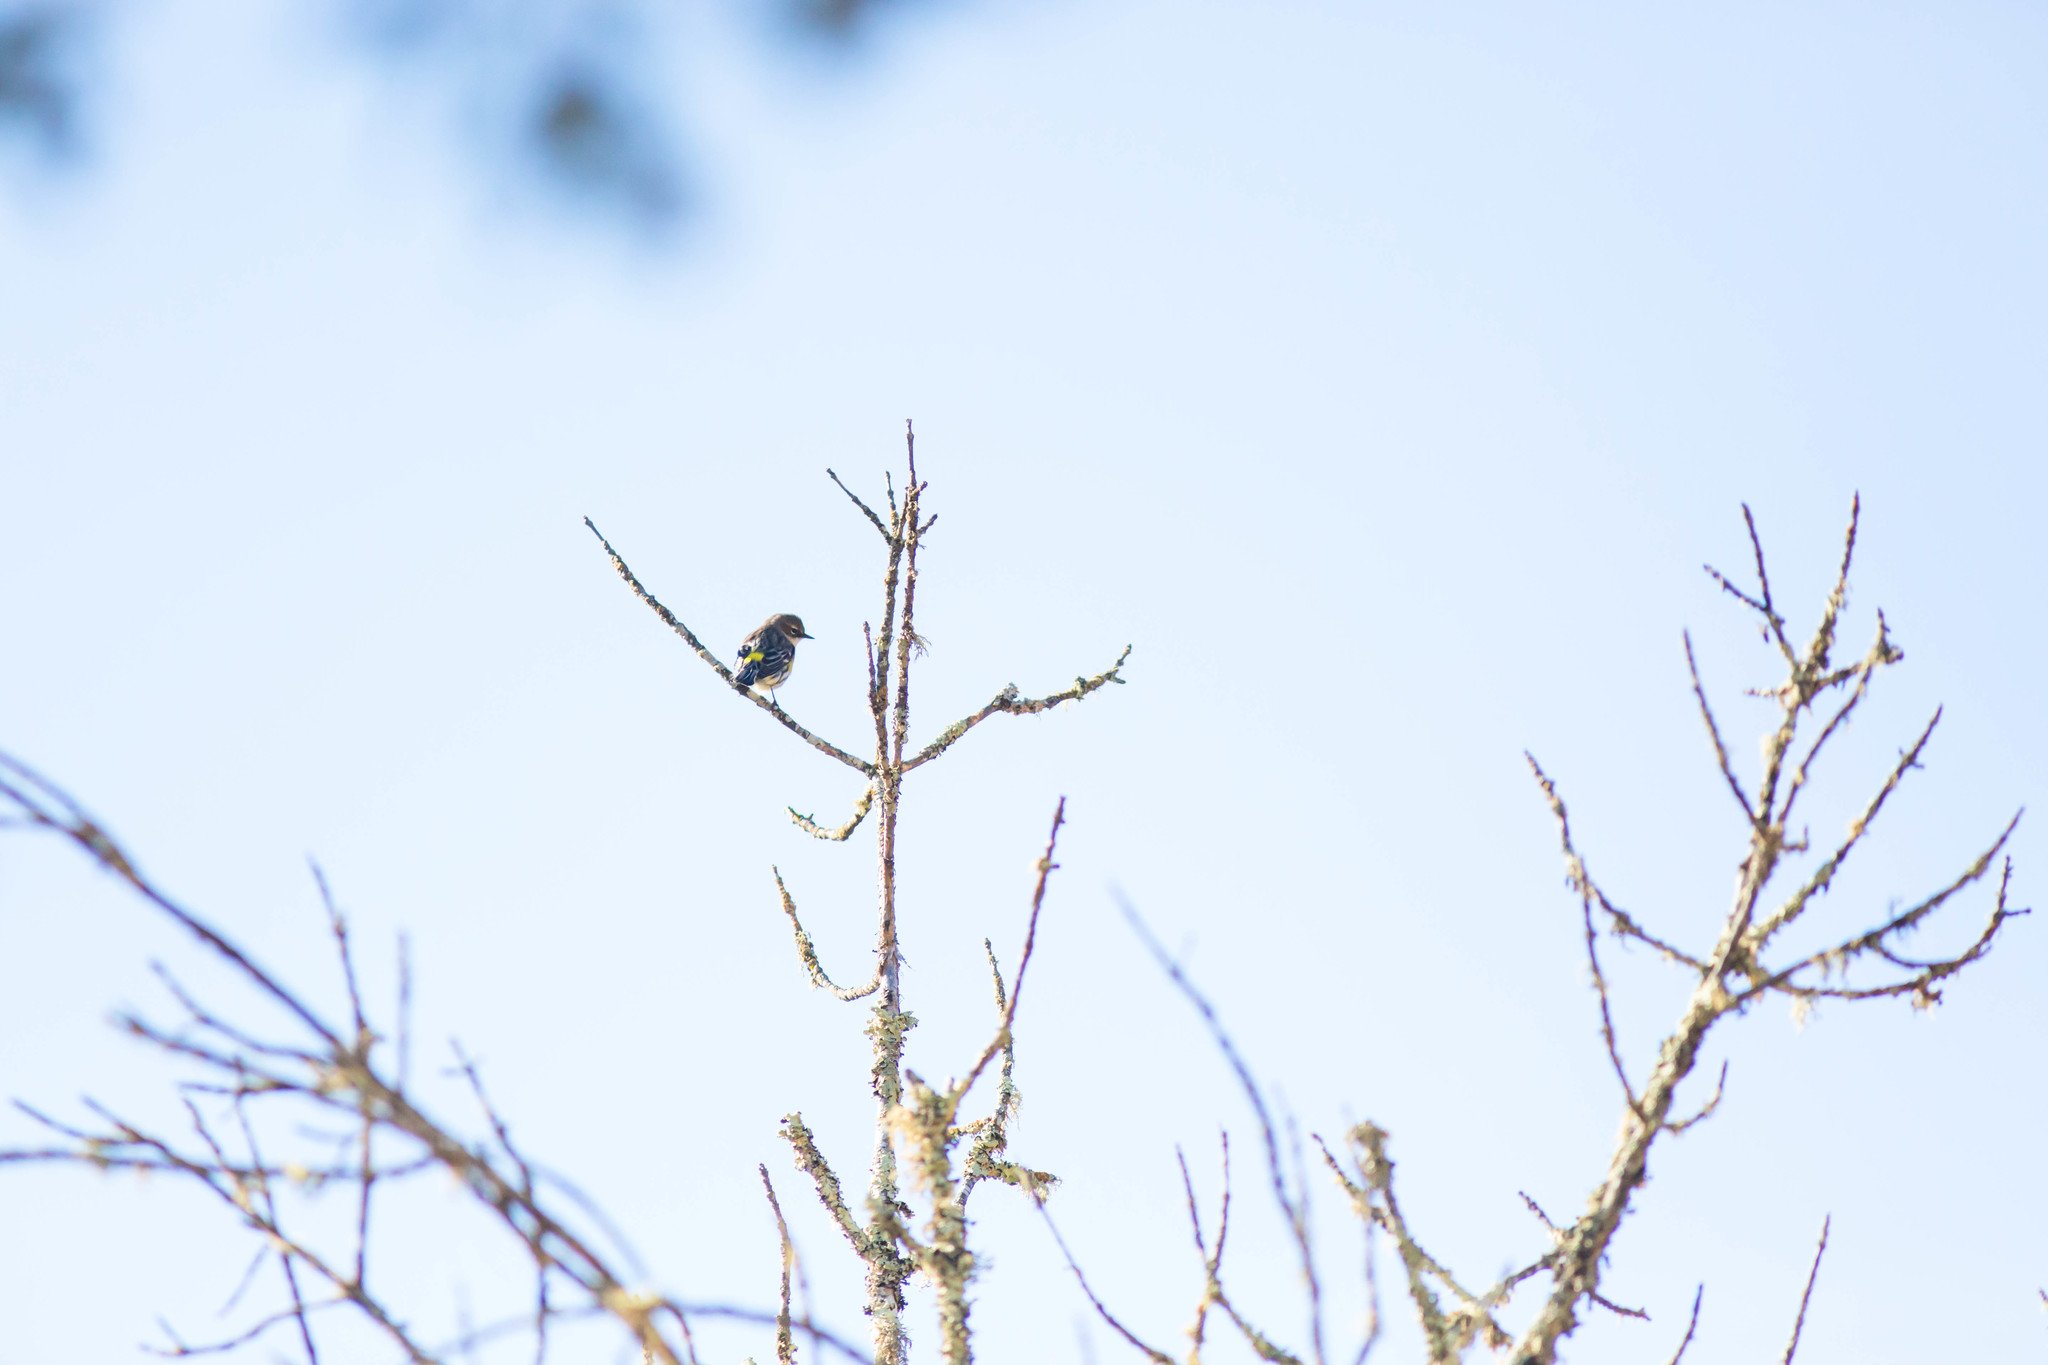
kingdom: Animalia
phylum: Chordata
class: Aves
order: Passeriformes
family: Parulidae
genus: Setophaga
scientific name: Setophaga coronata
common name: Myrtle warbler
